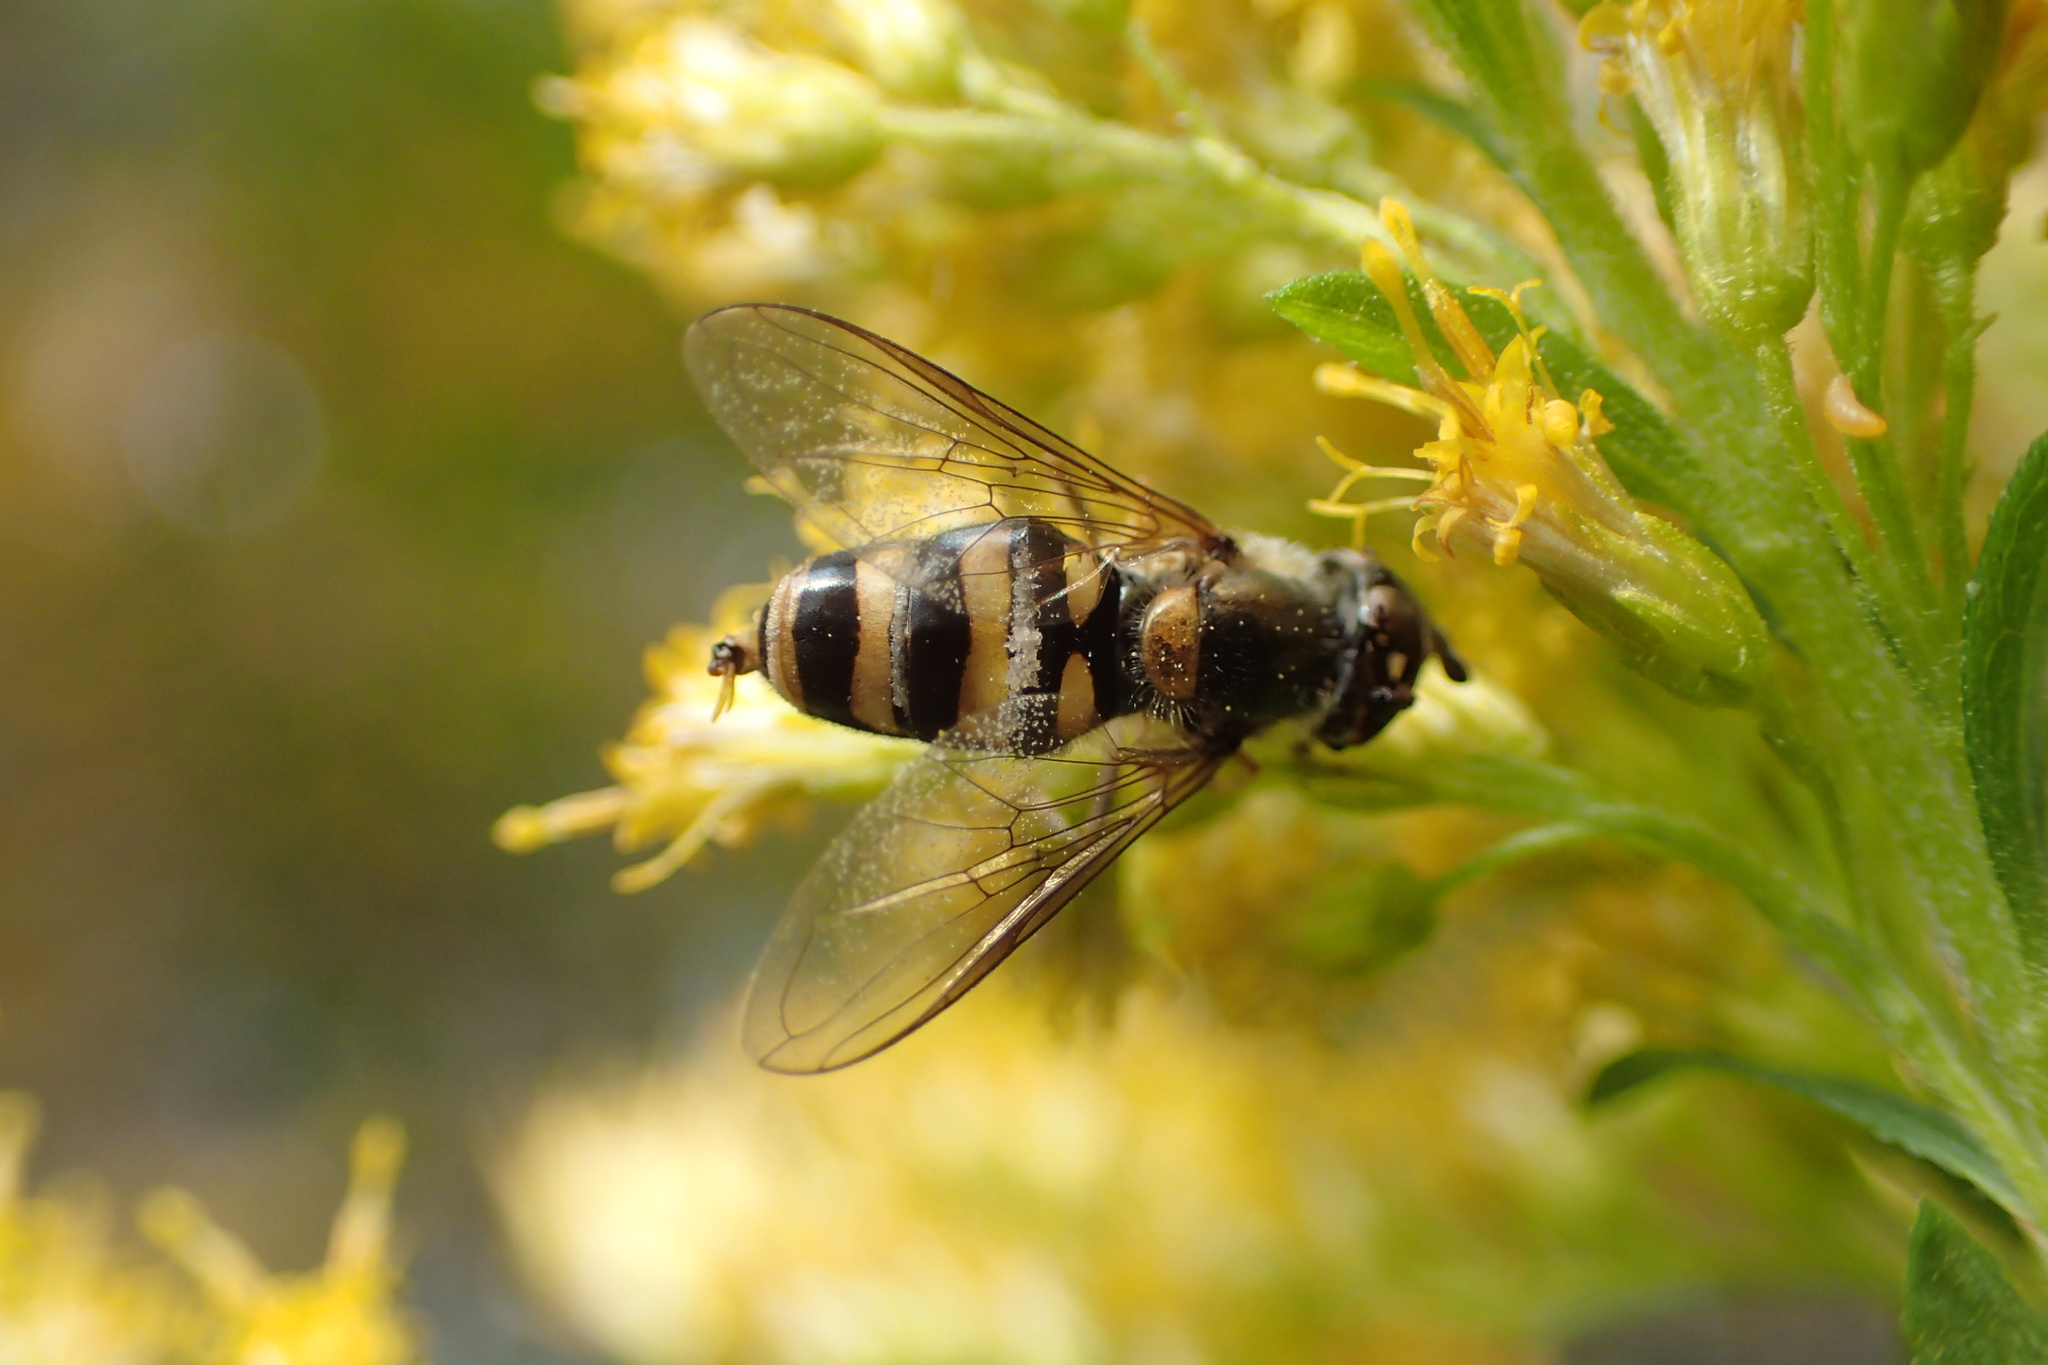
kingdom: Animalia
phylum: Arthropoda
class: Insecta
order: Diptera
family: Syrphidae
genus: Eupeodes
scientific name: Eupeodes
